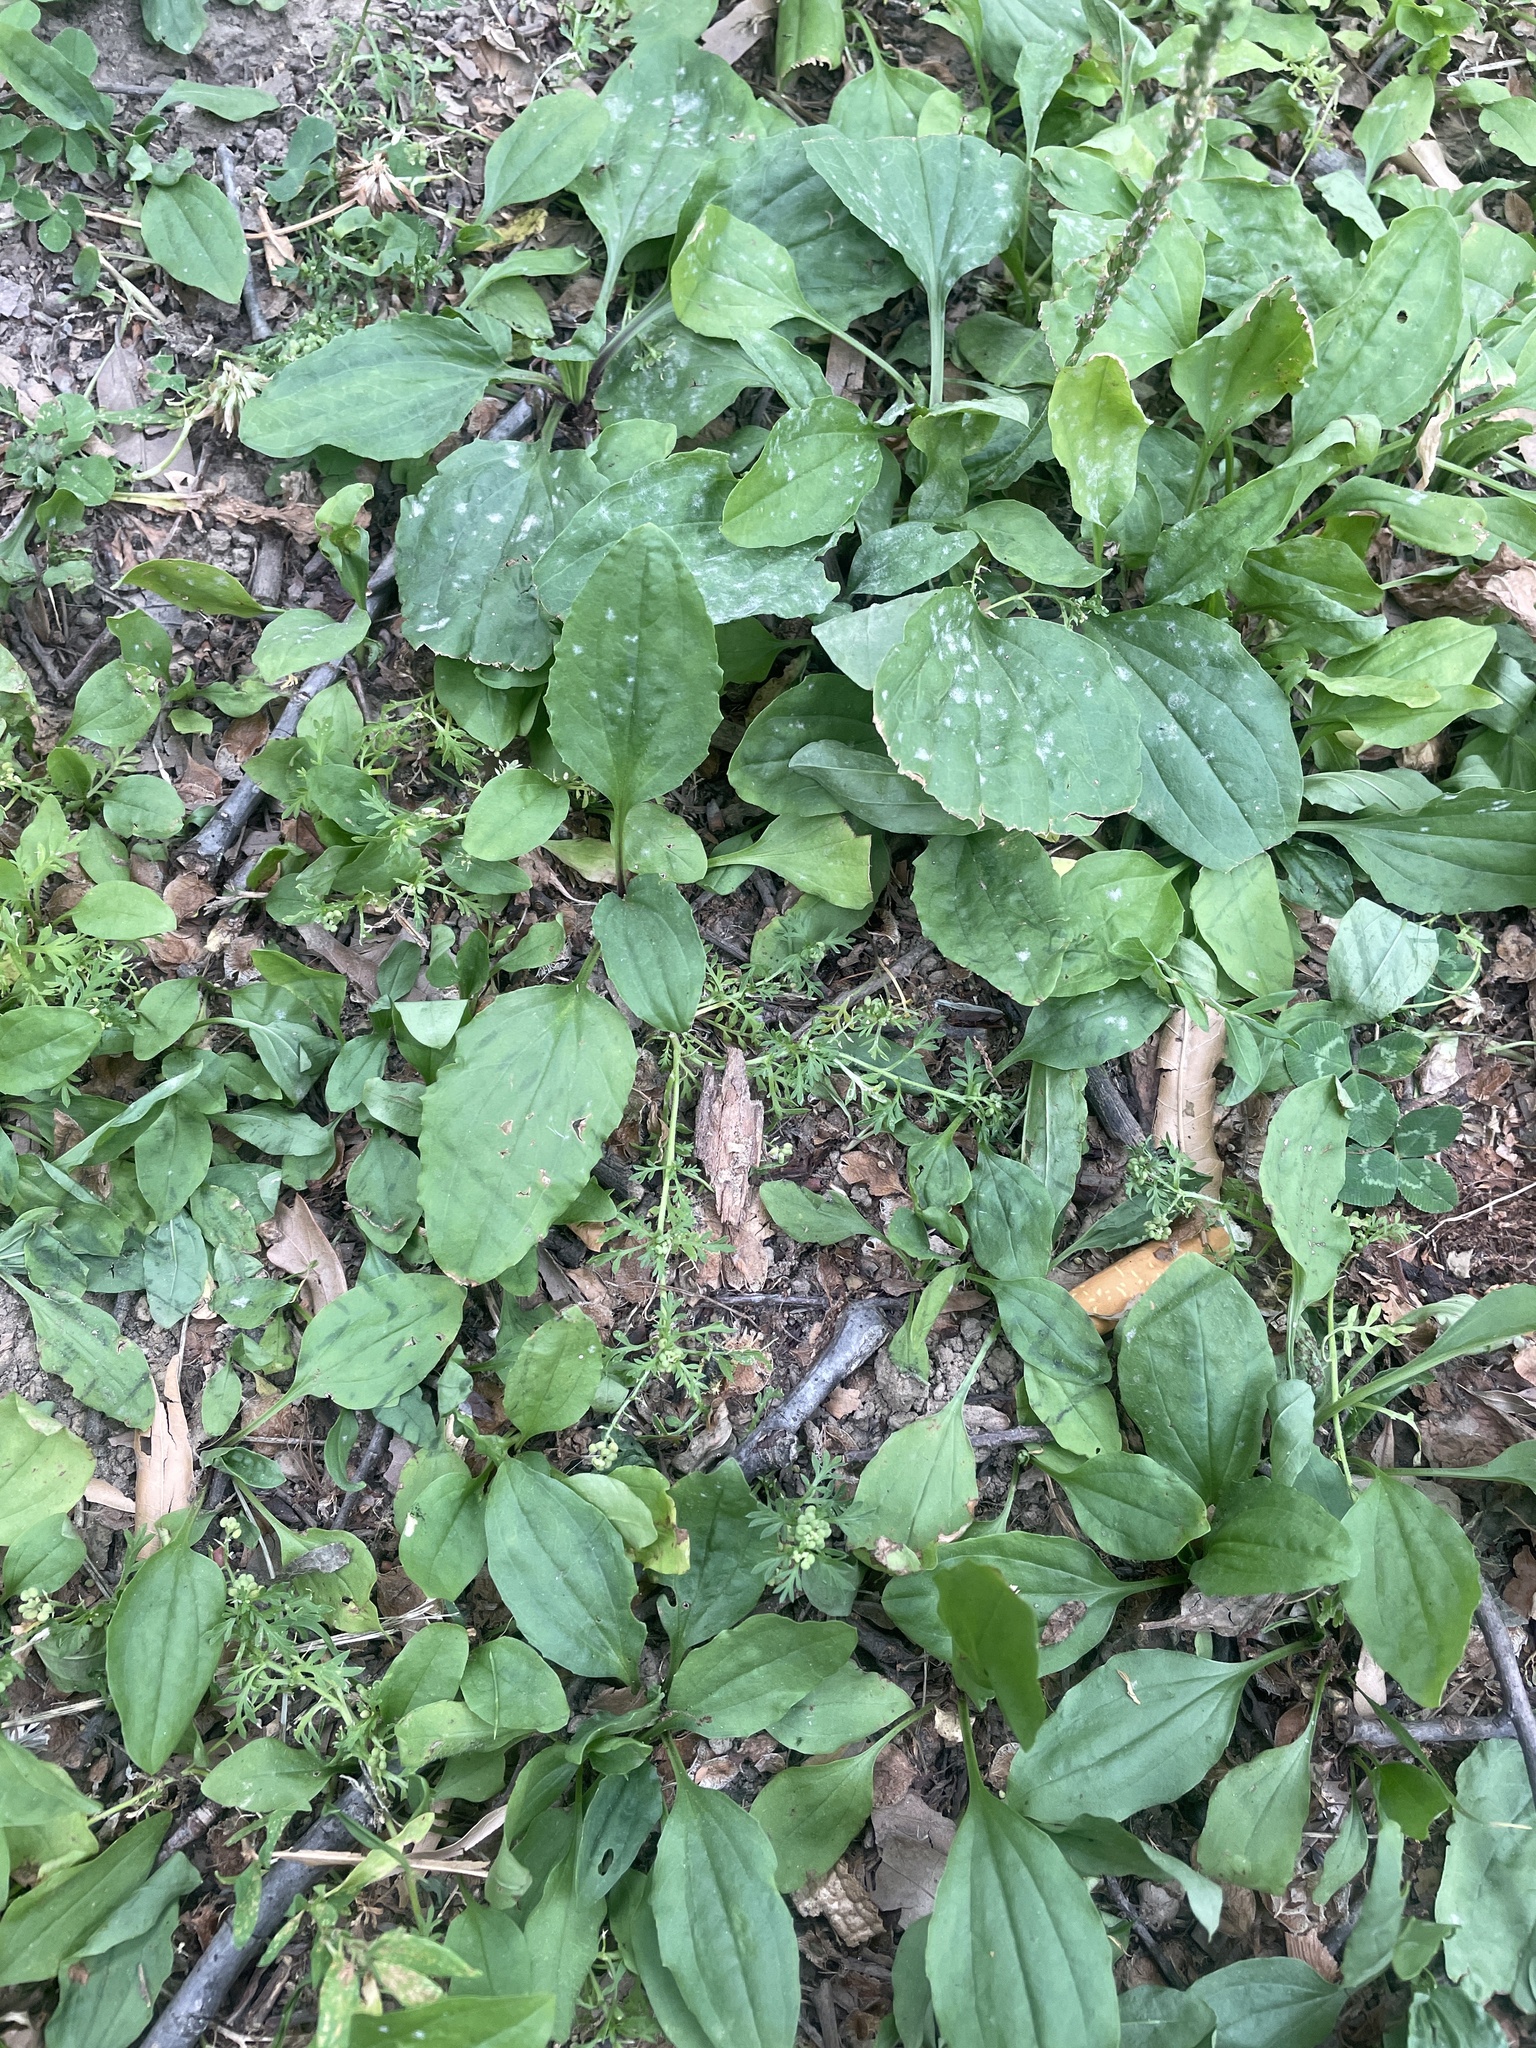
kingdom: Plantae
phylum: Tracheophyta
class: Magnoliopsida
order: Brassicales
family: Brassicaceae
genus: Lepidium
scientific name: Lepidium didymum
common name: Lesser swinecress
